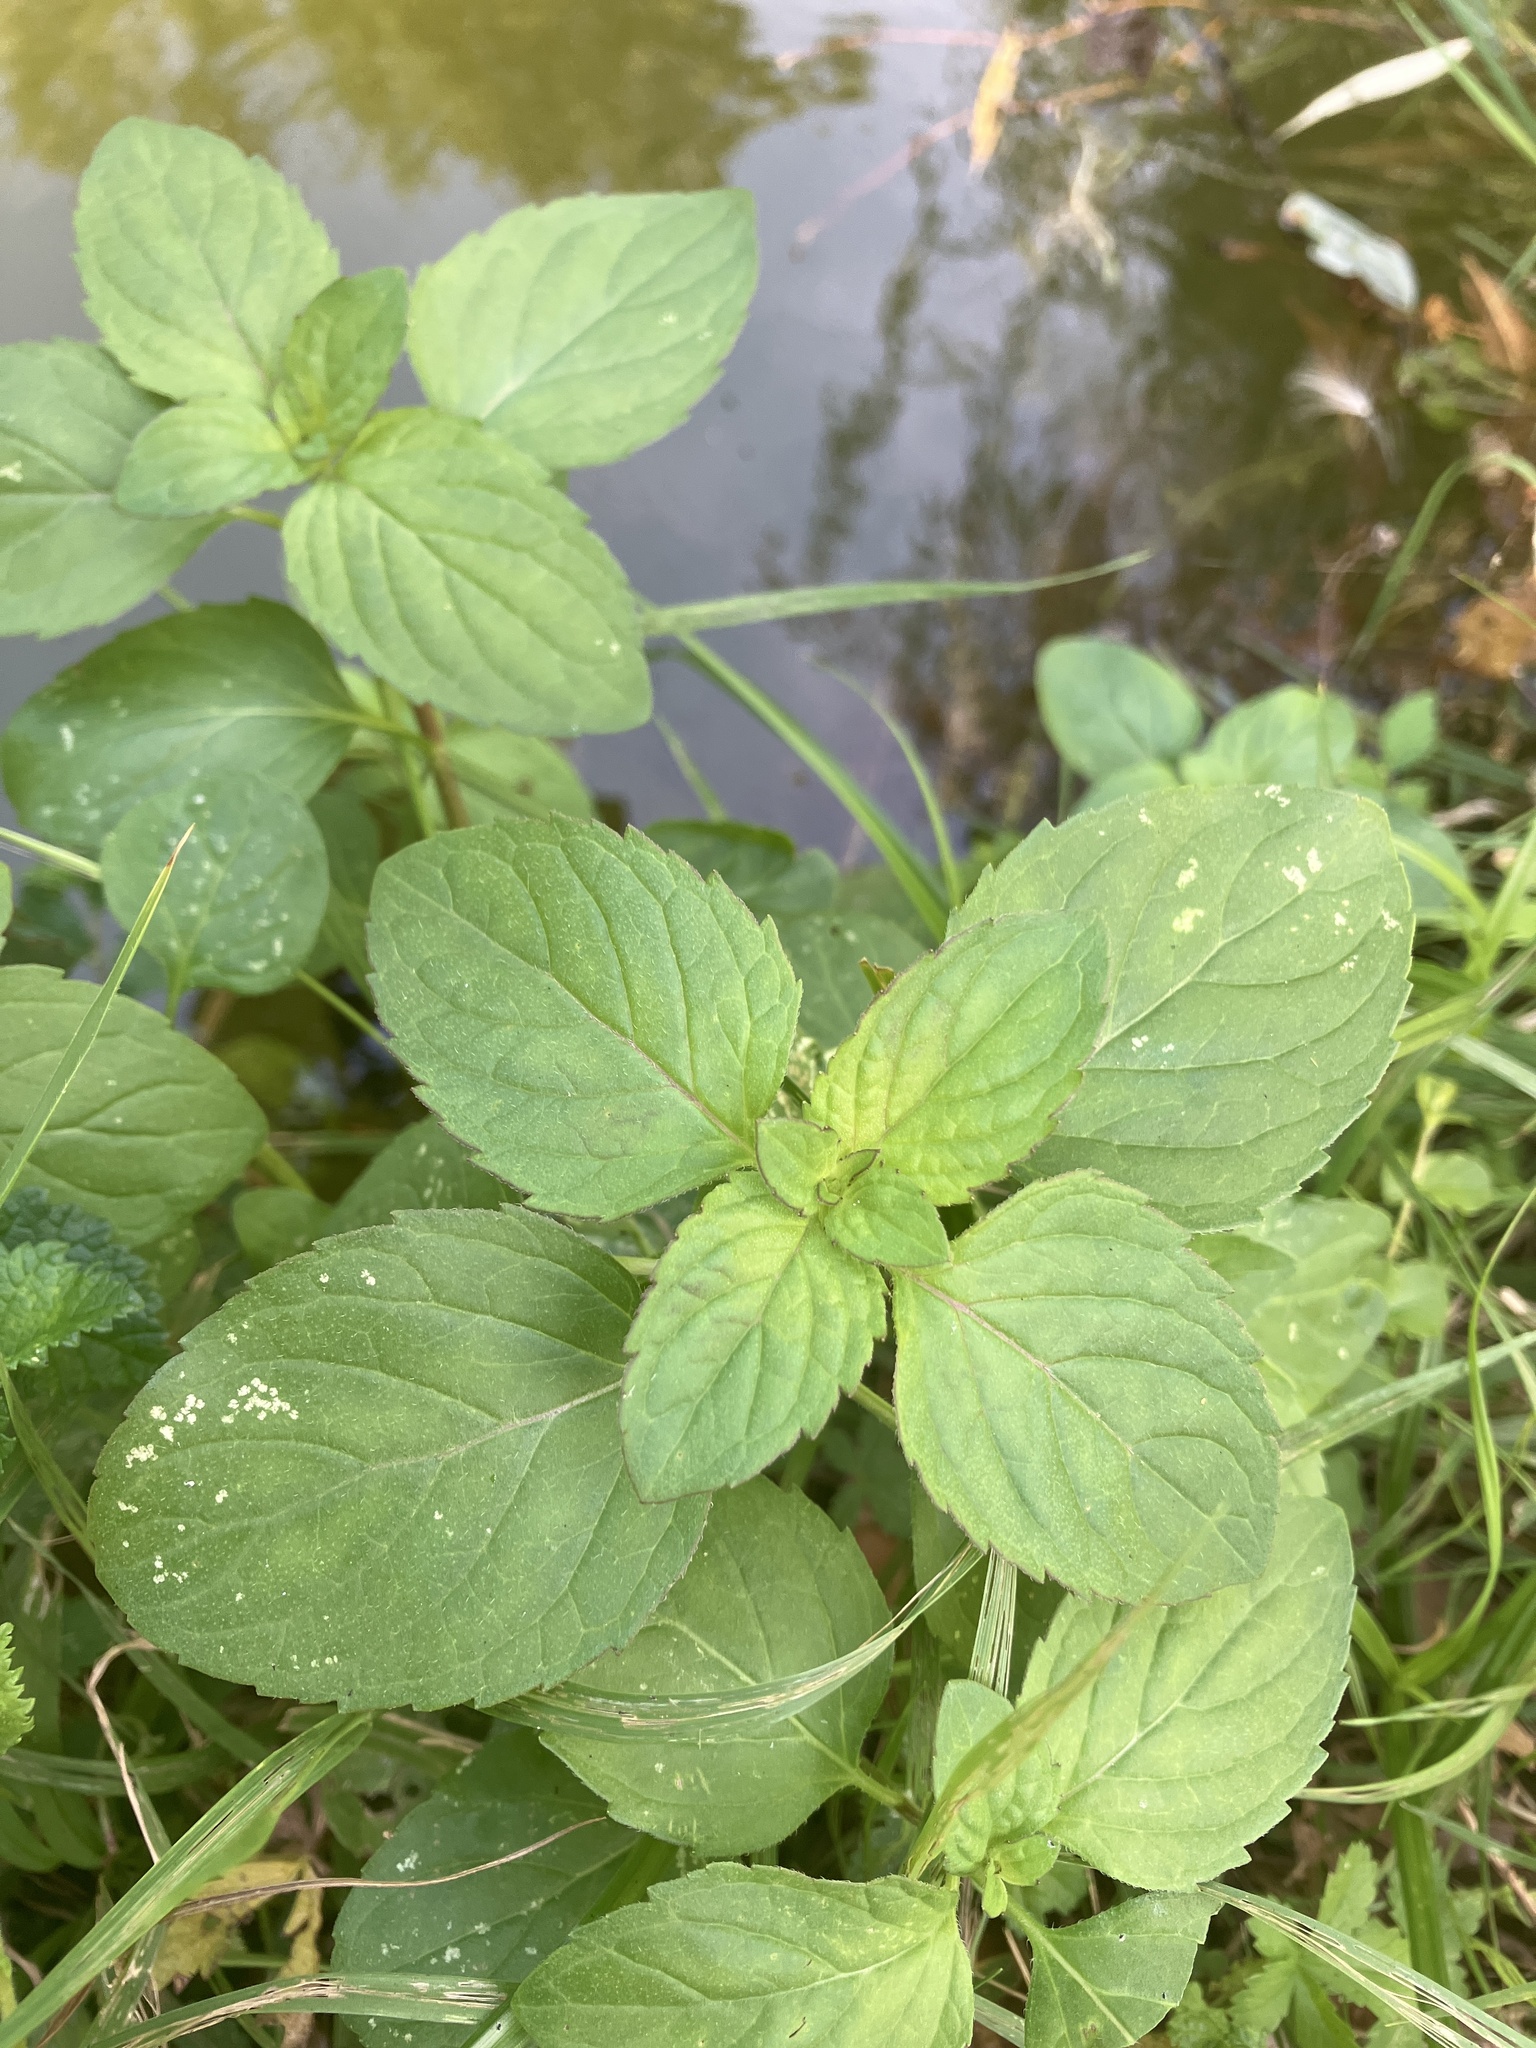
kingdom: Plantae
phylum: Tracheophyta
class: Magnoliopsida
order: Lamiales
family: Lamiaceae
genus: Mentha
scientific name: Mentha aquatica
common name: Water mint
